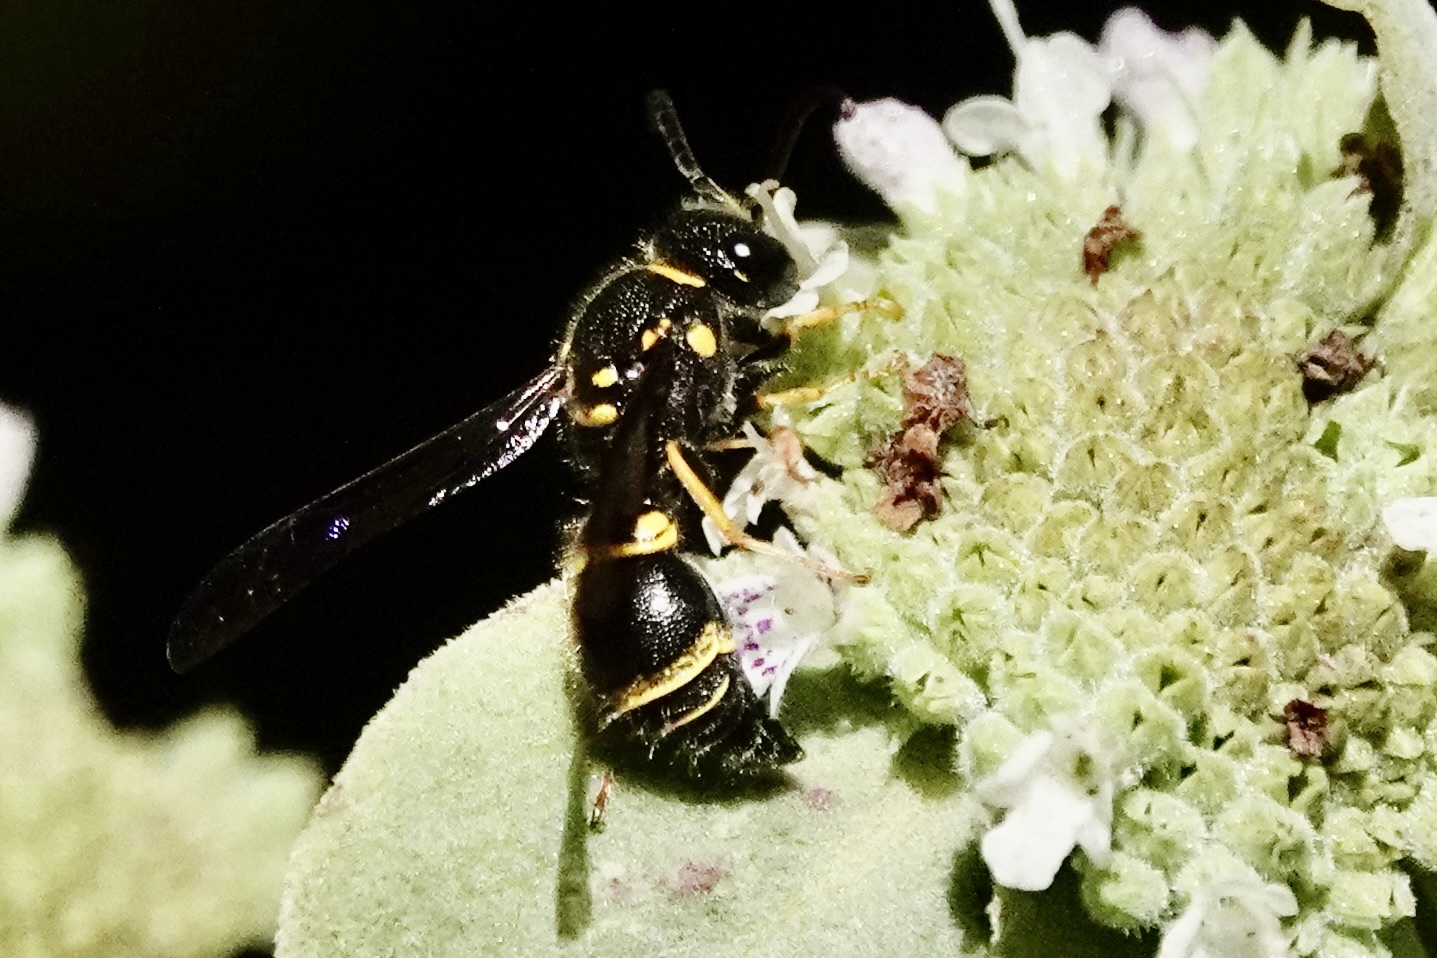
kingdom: Animalia
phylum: Arthropoda
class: Insecta
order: Hymenoptera
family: Vespidae
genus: Ancistrocerus
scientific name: Ancistrocerus campestris
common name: Smiling mason wasp
